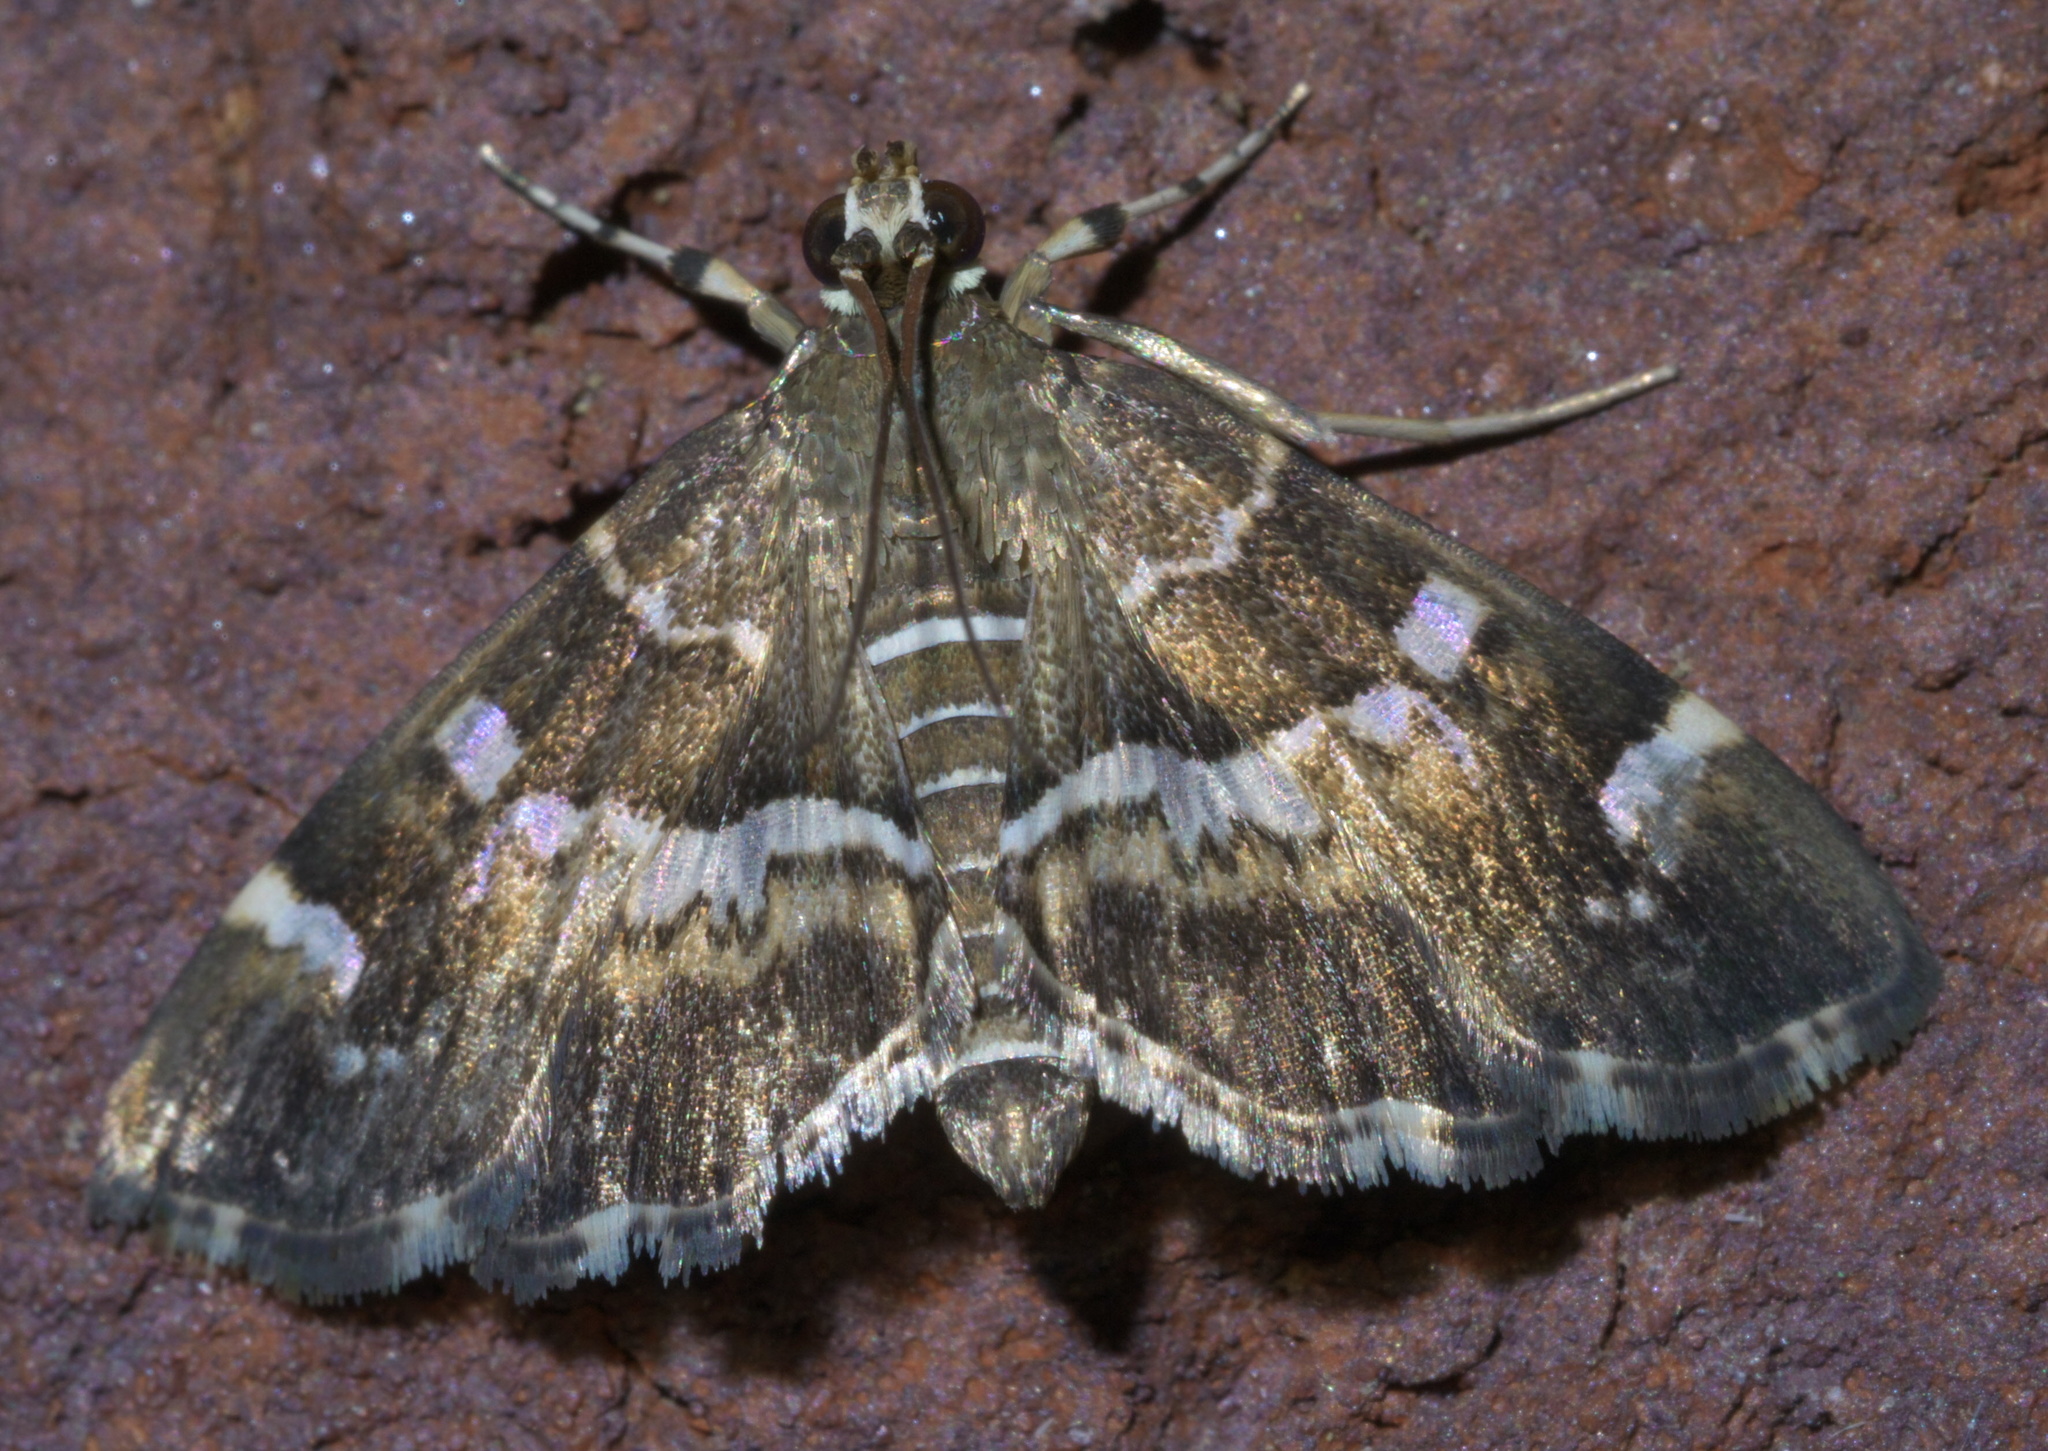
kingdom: Animalia
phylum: Arthropoda
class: Insecta
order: Lepidoptera
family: Crambidae
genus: Hymenia
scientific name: Hymenia perspectalis
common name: Spotted beet webworm
